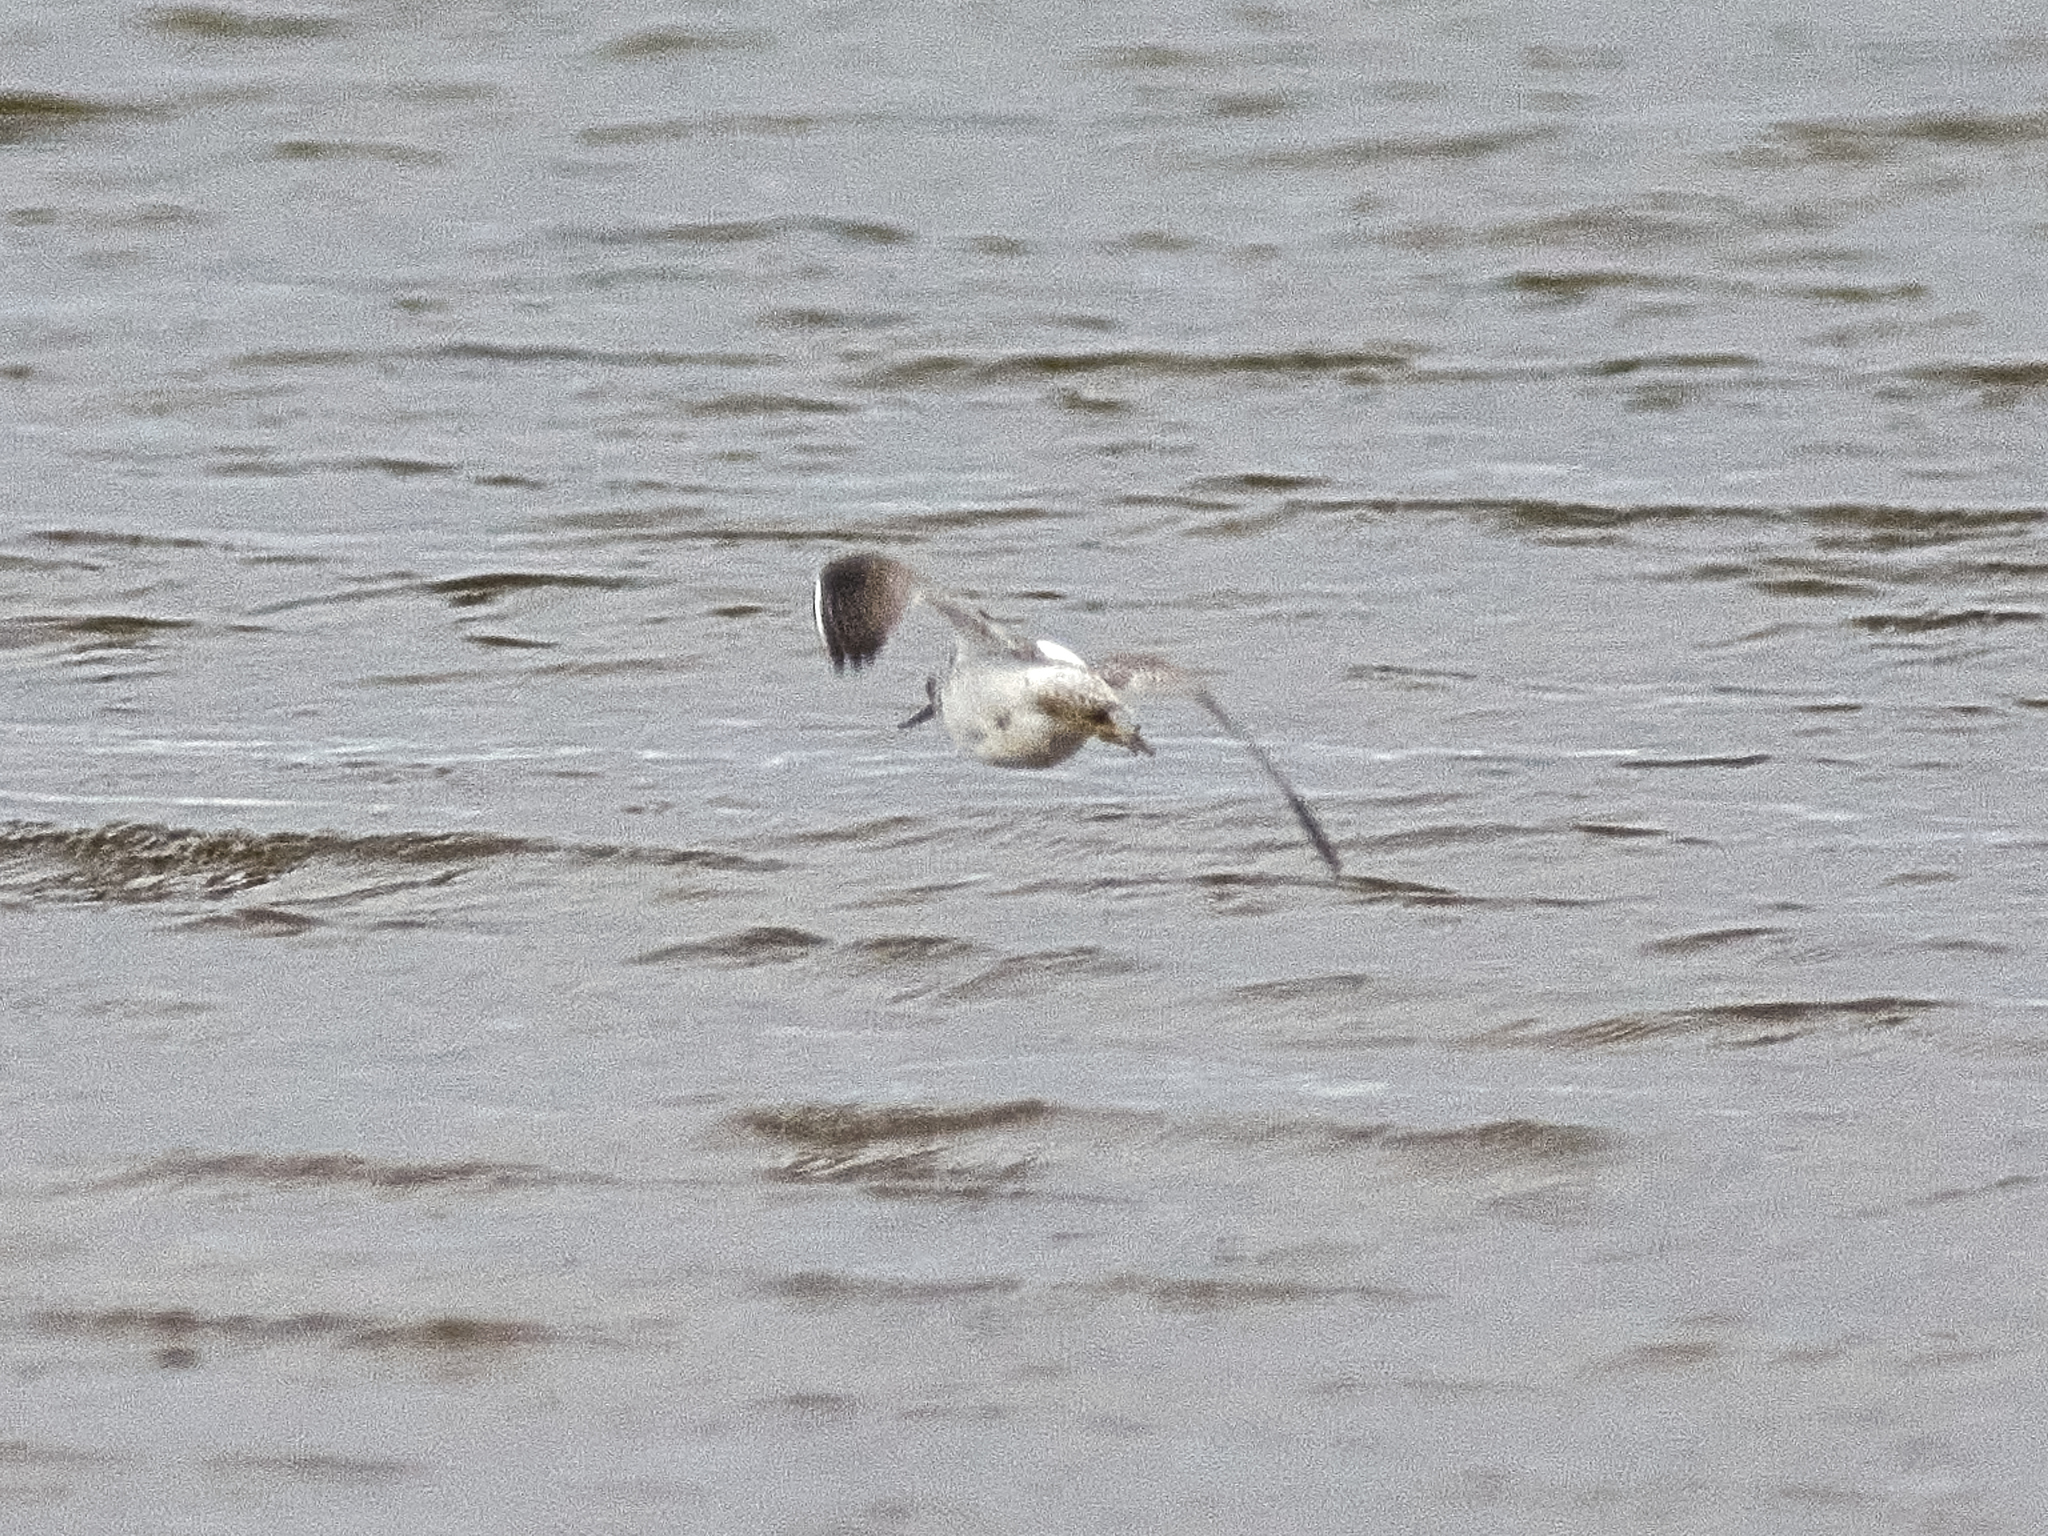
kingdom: Animalia
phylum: Chordata
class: Aves
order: Charadriiformes
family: Scolopacidae
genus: Tringa
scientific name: Tringa nebularia
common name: Common greenshank
